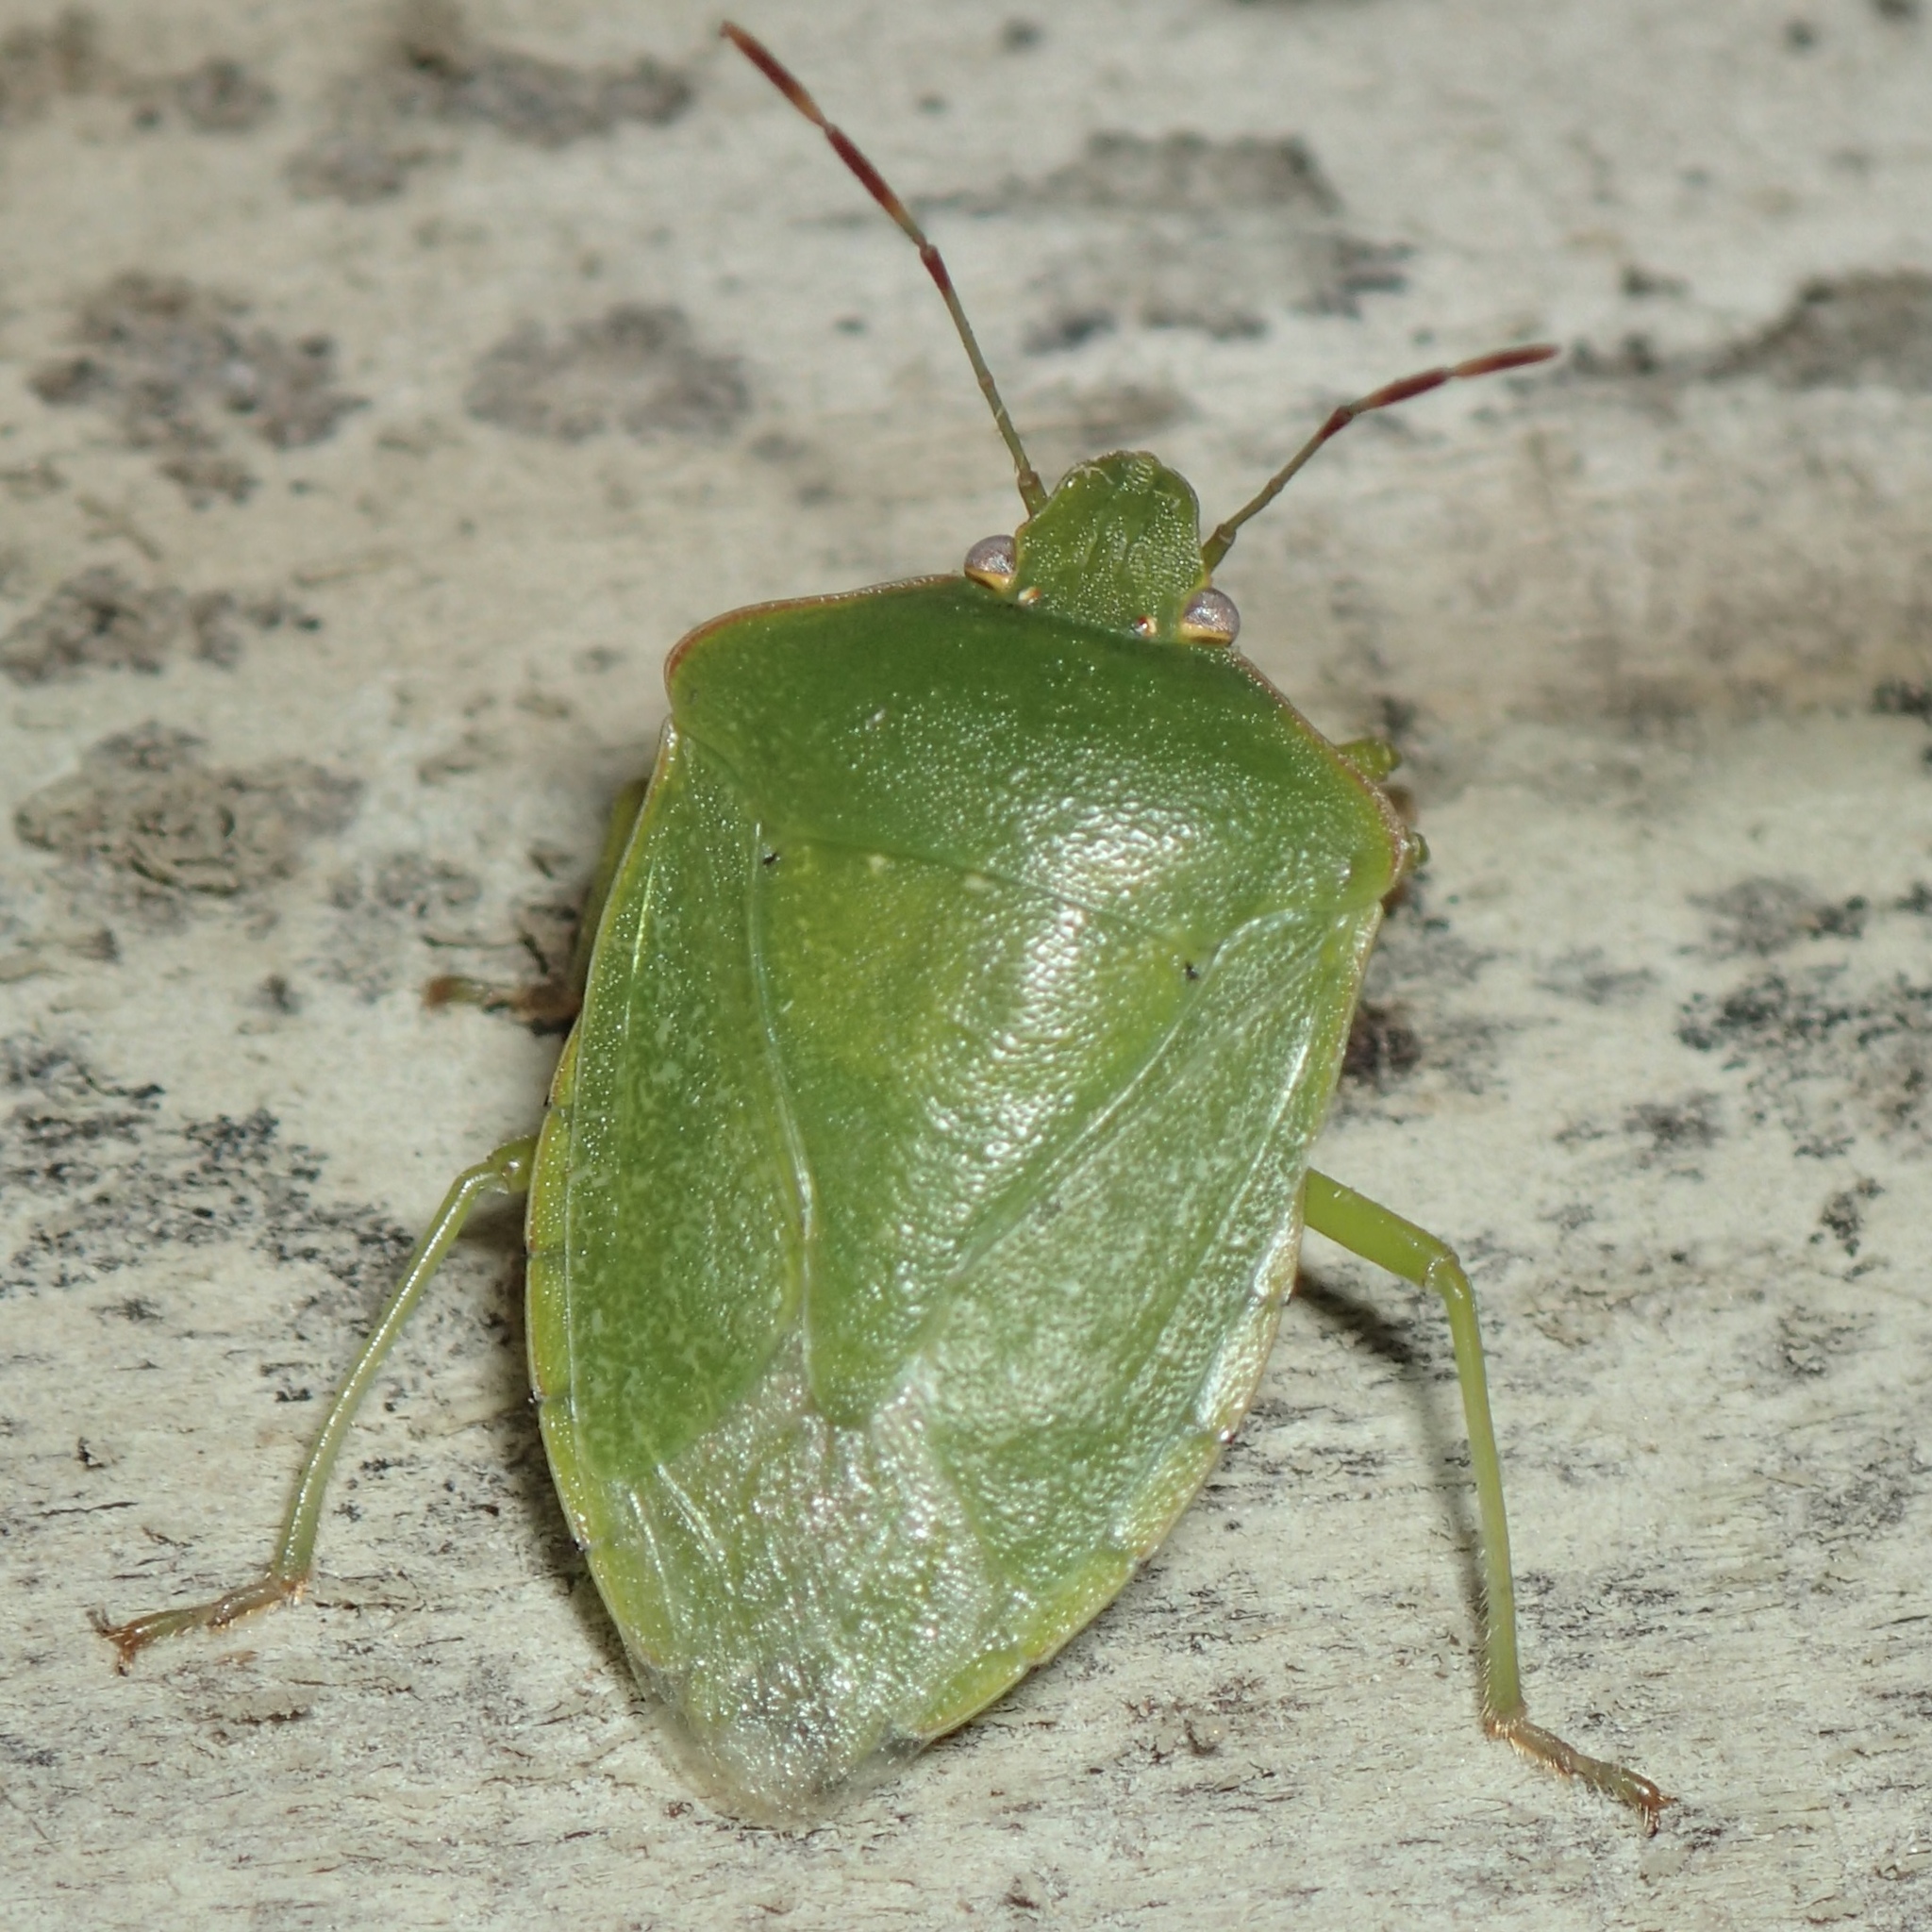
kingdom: Animalia
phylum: Arthropoda
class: Insecta
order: Hemiptera
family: Pentatomidae
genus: Nezara
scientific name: Nezara viridula
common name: Southern green stink bug
